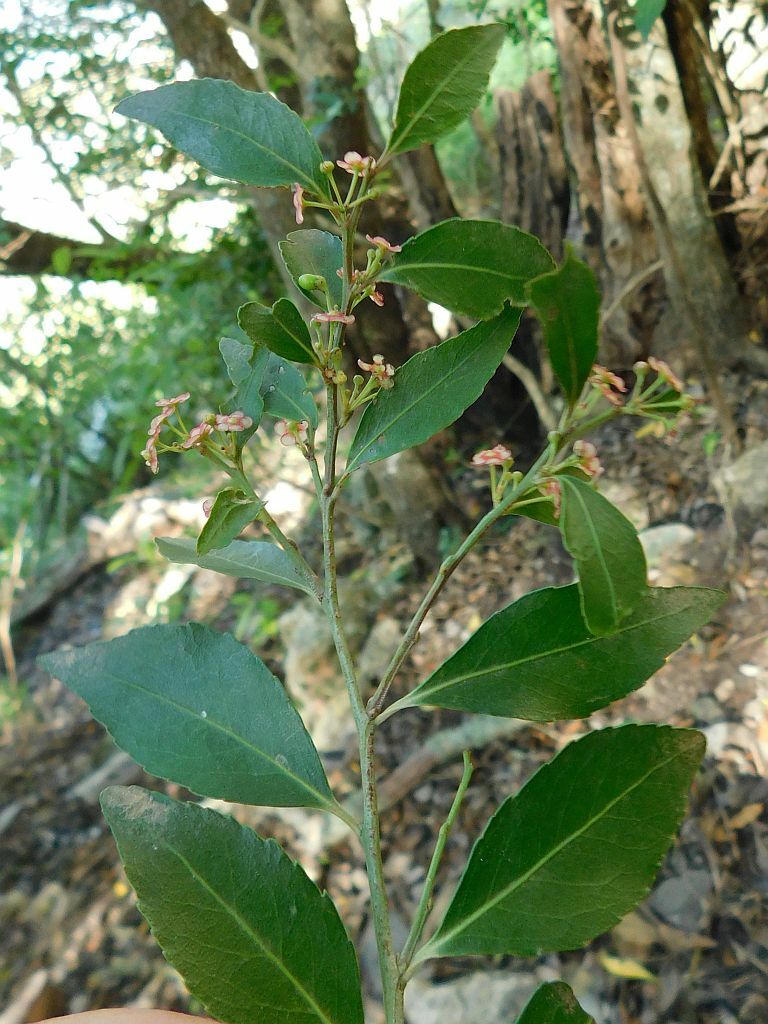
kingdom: Plantae
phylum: Tracheophyta
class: Magnoliopsida
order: Celastrales
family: Celastraceae
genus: Gymnosporia
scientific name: Gymnosporia acuminata
